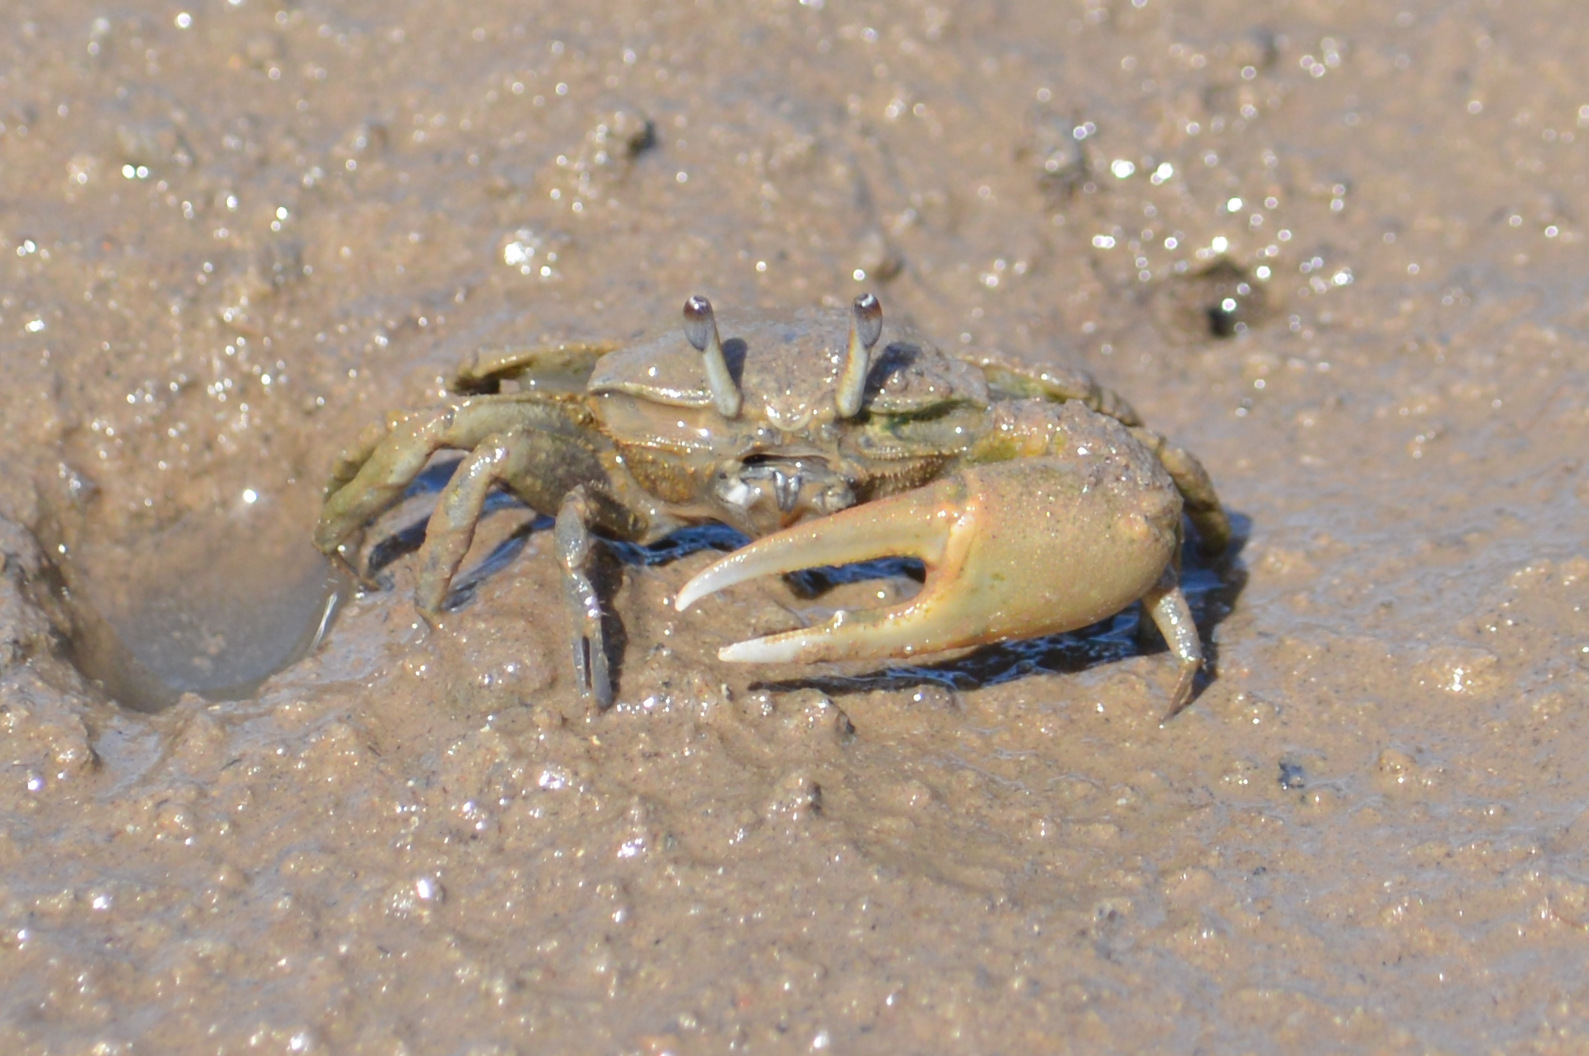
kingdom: Animalia
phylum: Arthropoda
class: Malacostraca
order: Decapoda
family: Ocypodidae
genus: Leptuca
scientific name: Leptuca thayeri
